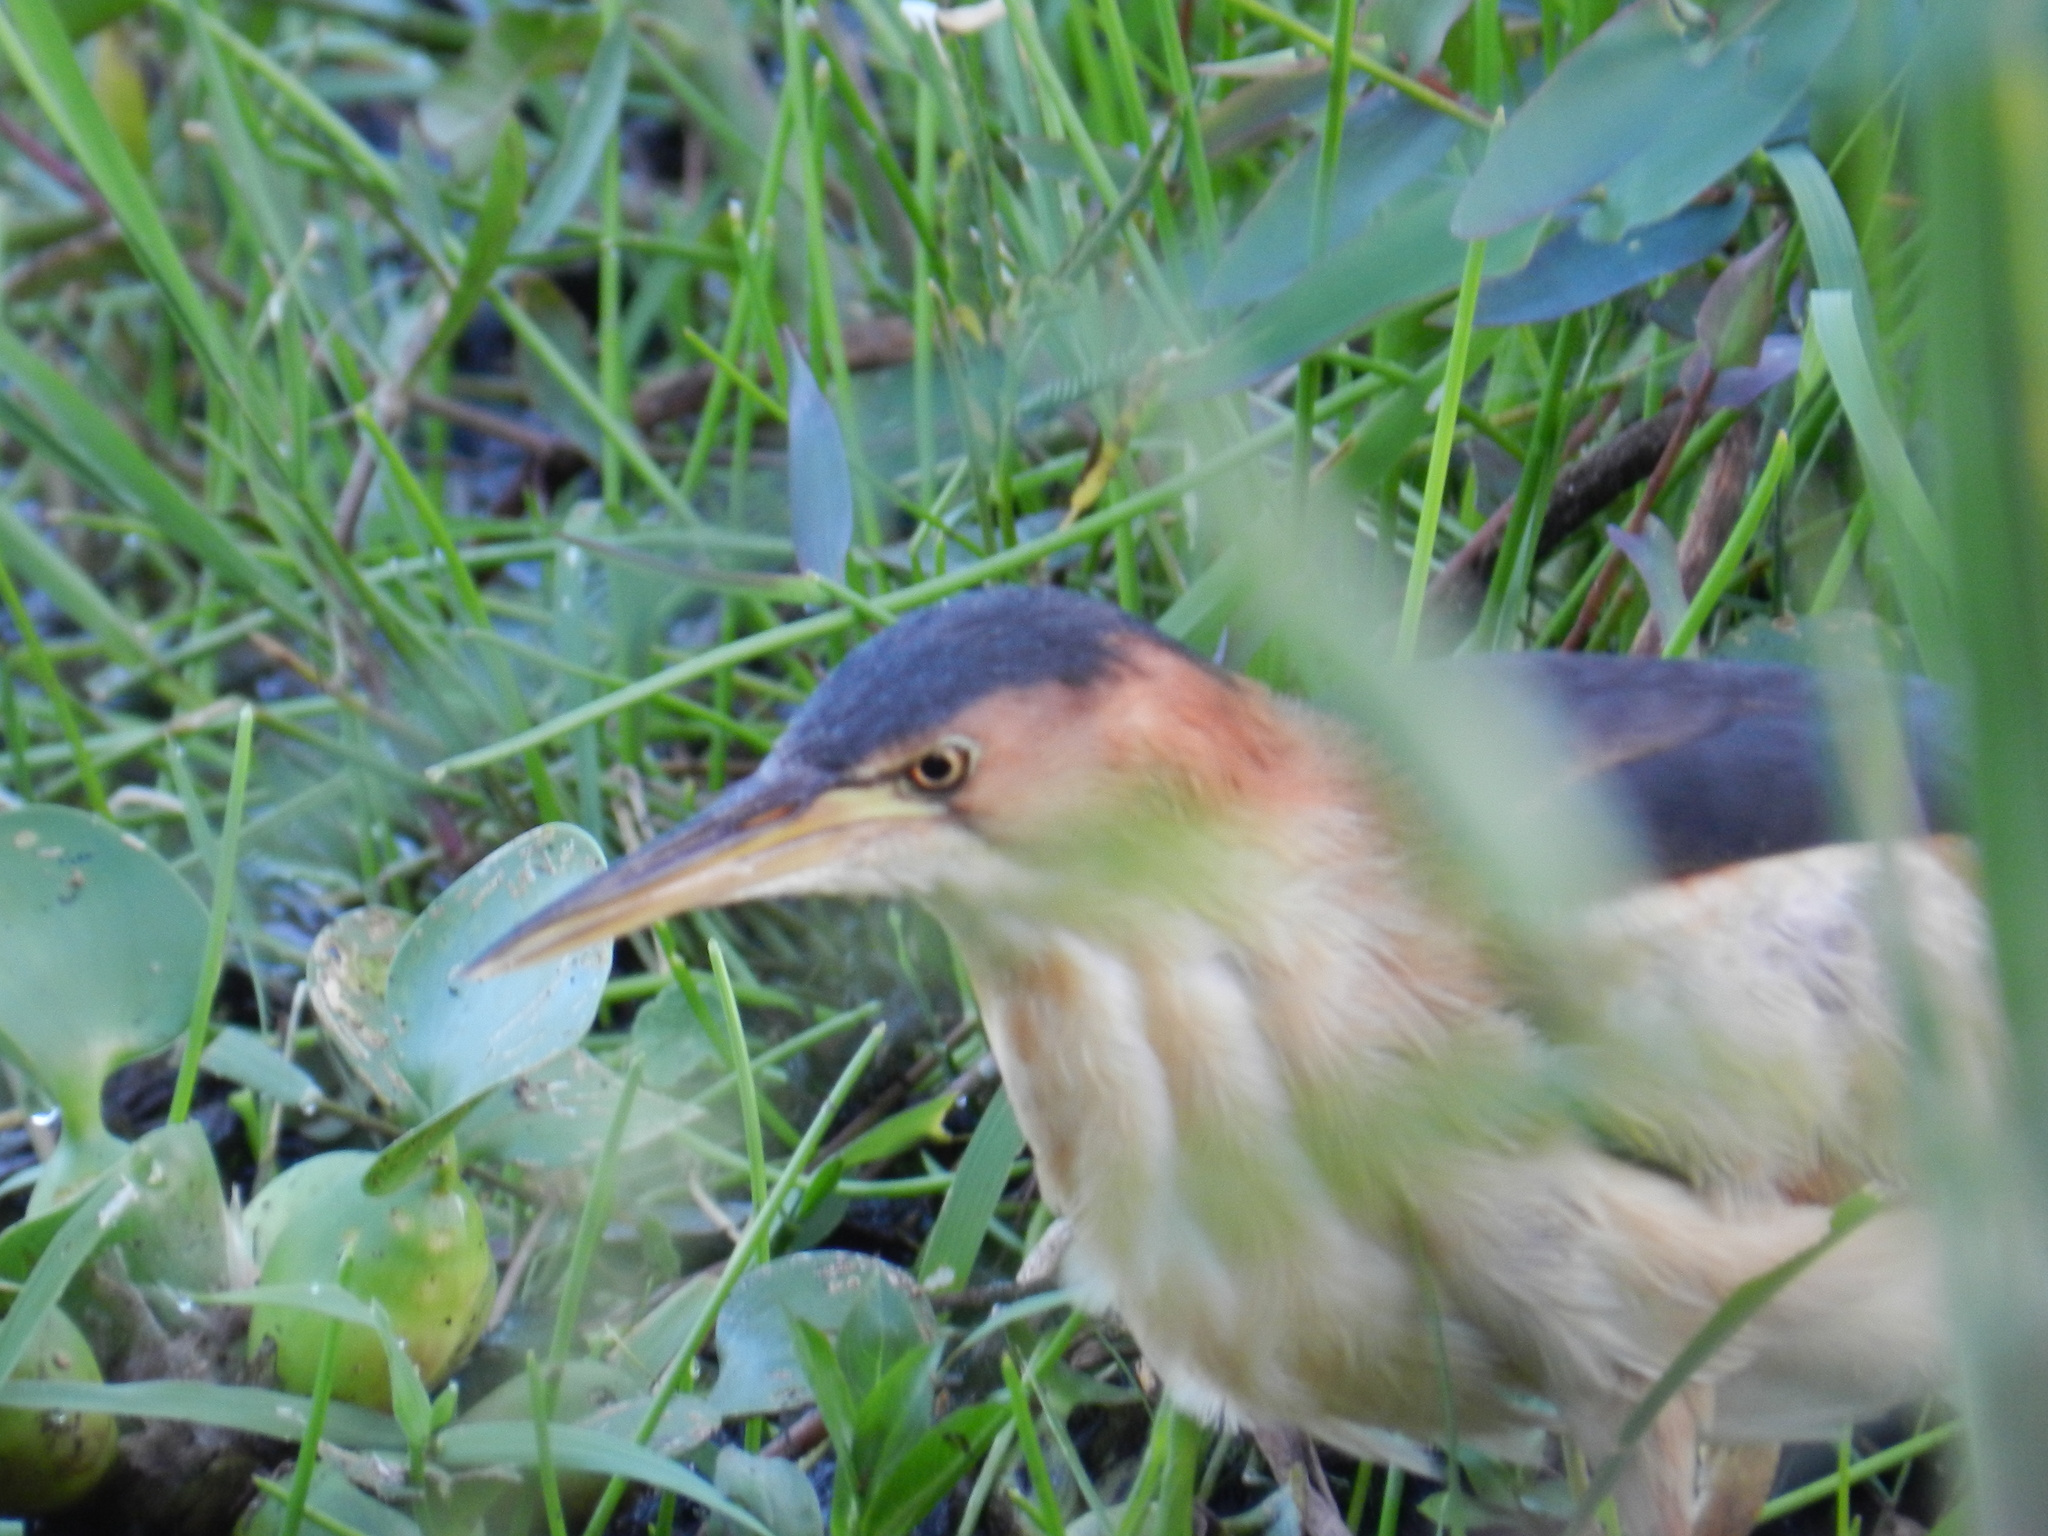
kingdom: Animalia
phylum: Chordata
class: Aves
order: Pelecaniformes
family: Ardeidae
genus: Ixobrychus
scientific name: Ixobrychus exilis
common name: Least bittern
